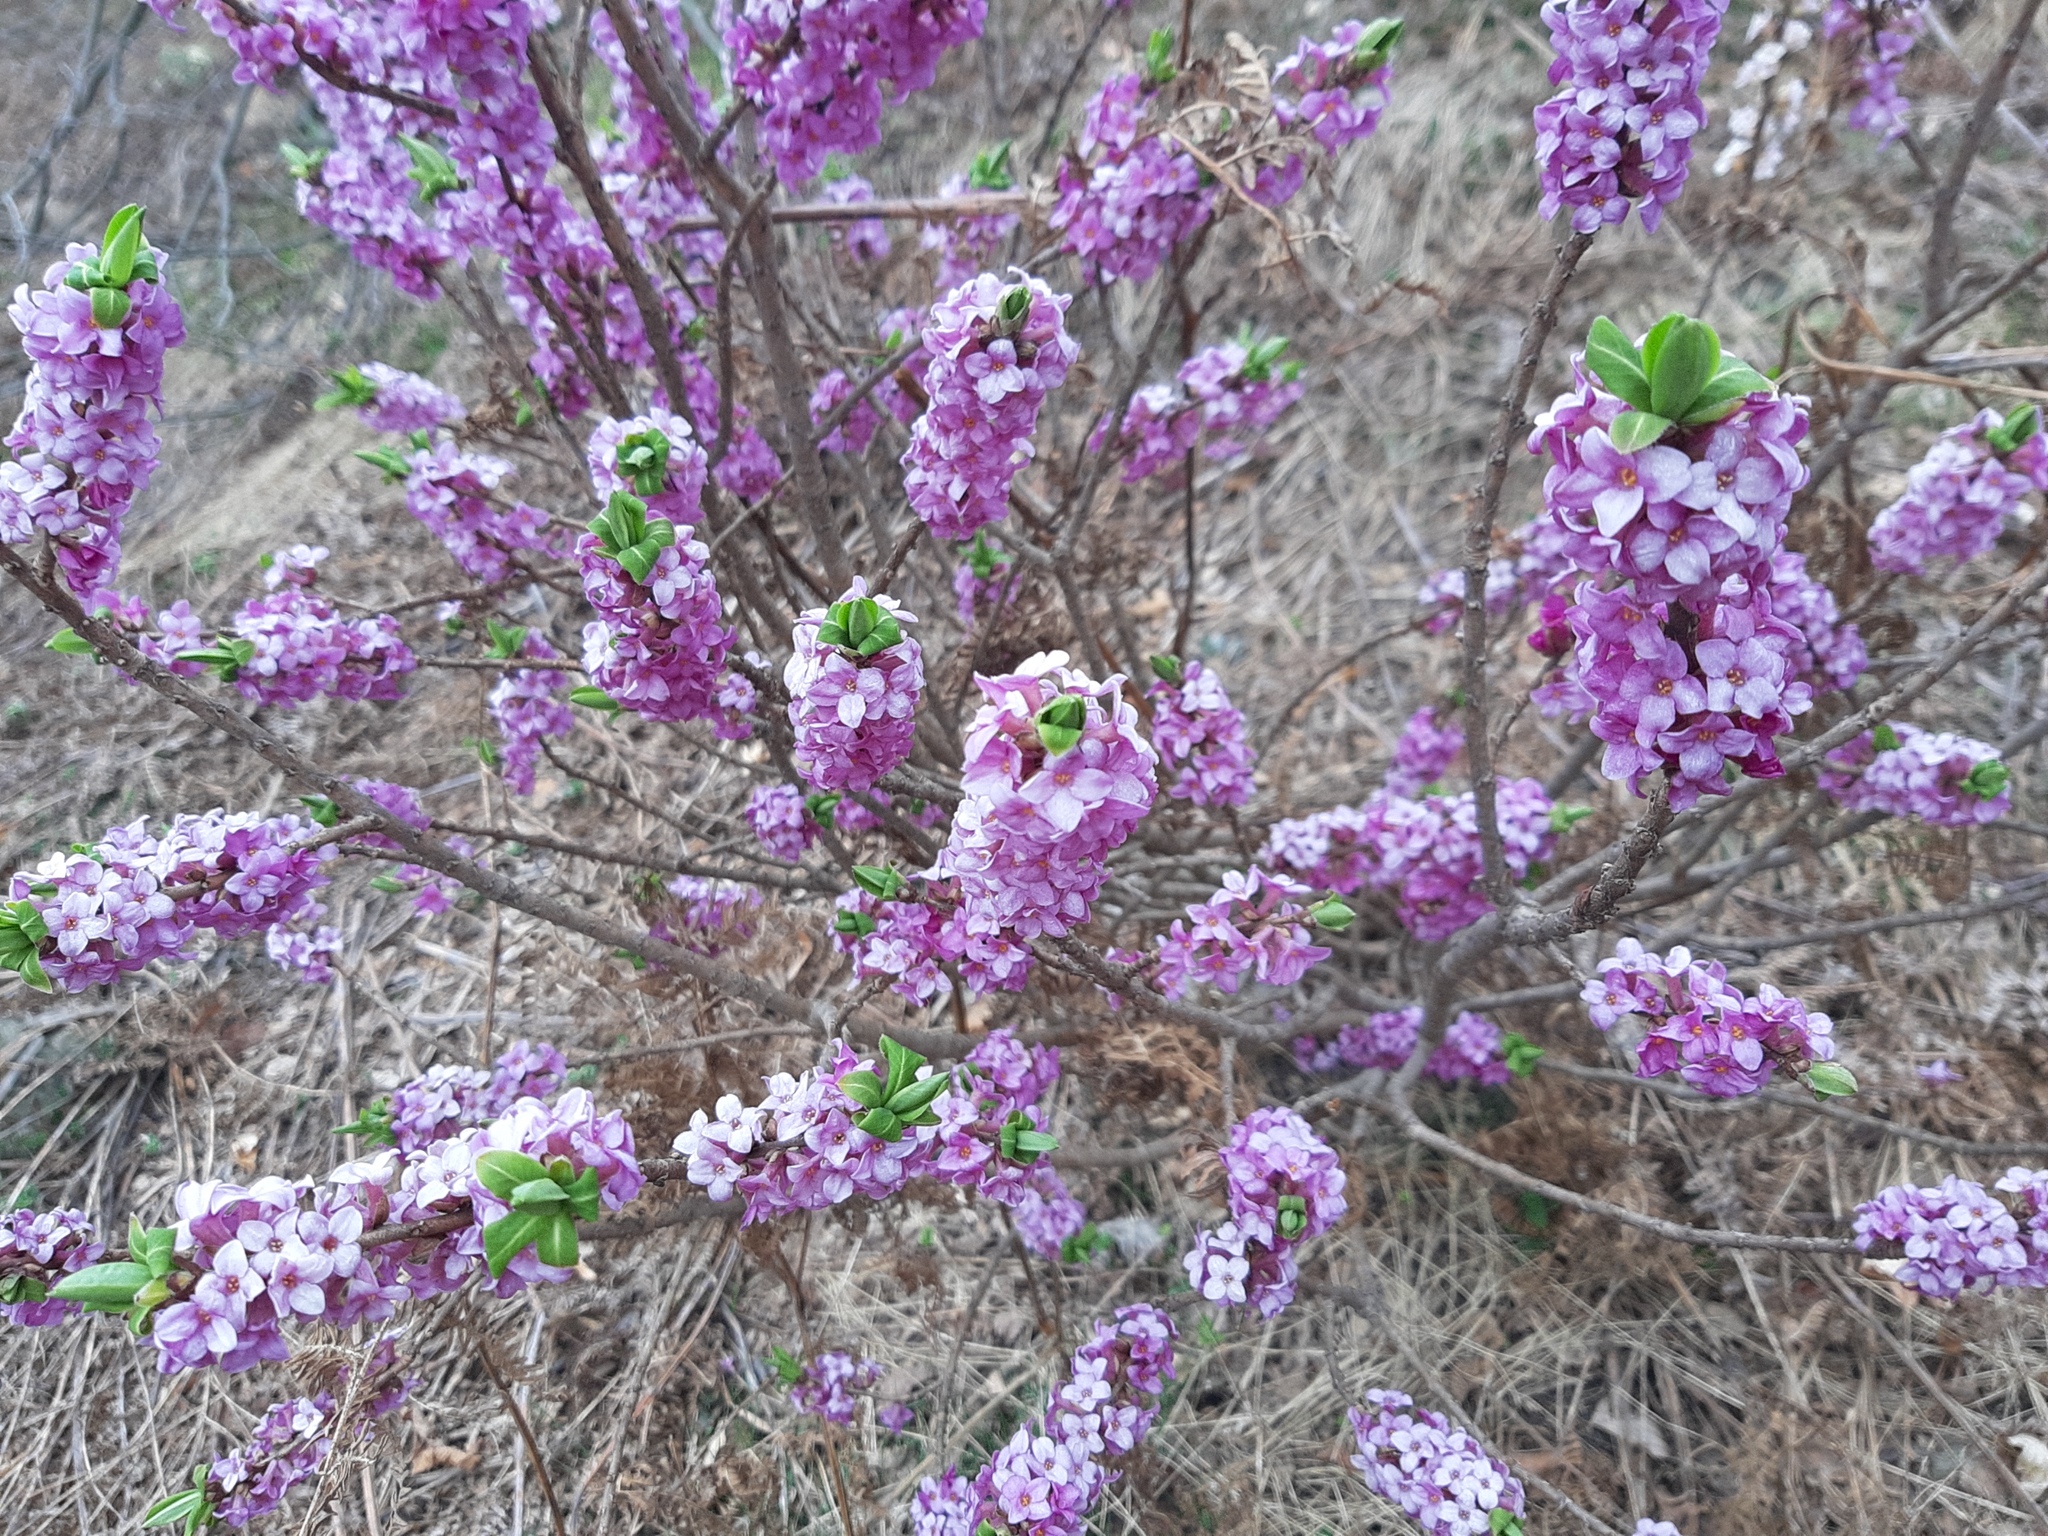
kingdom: Plantae
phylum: Tracheophyta
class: Magnoliopsida
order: Malvales
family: Thymelaeaceae
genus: Daphne
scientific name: Daphne mezereum
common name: Mezereon
